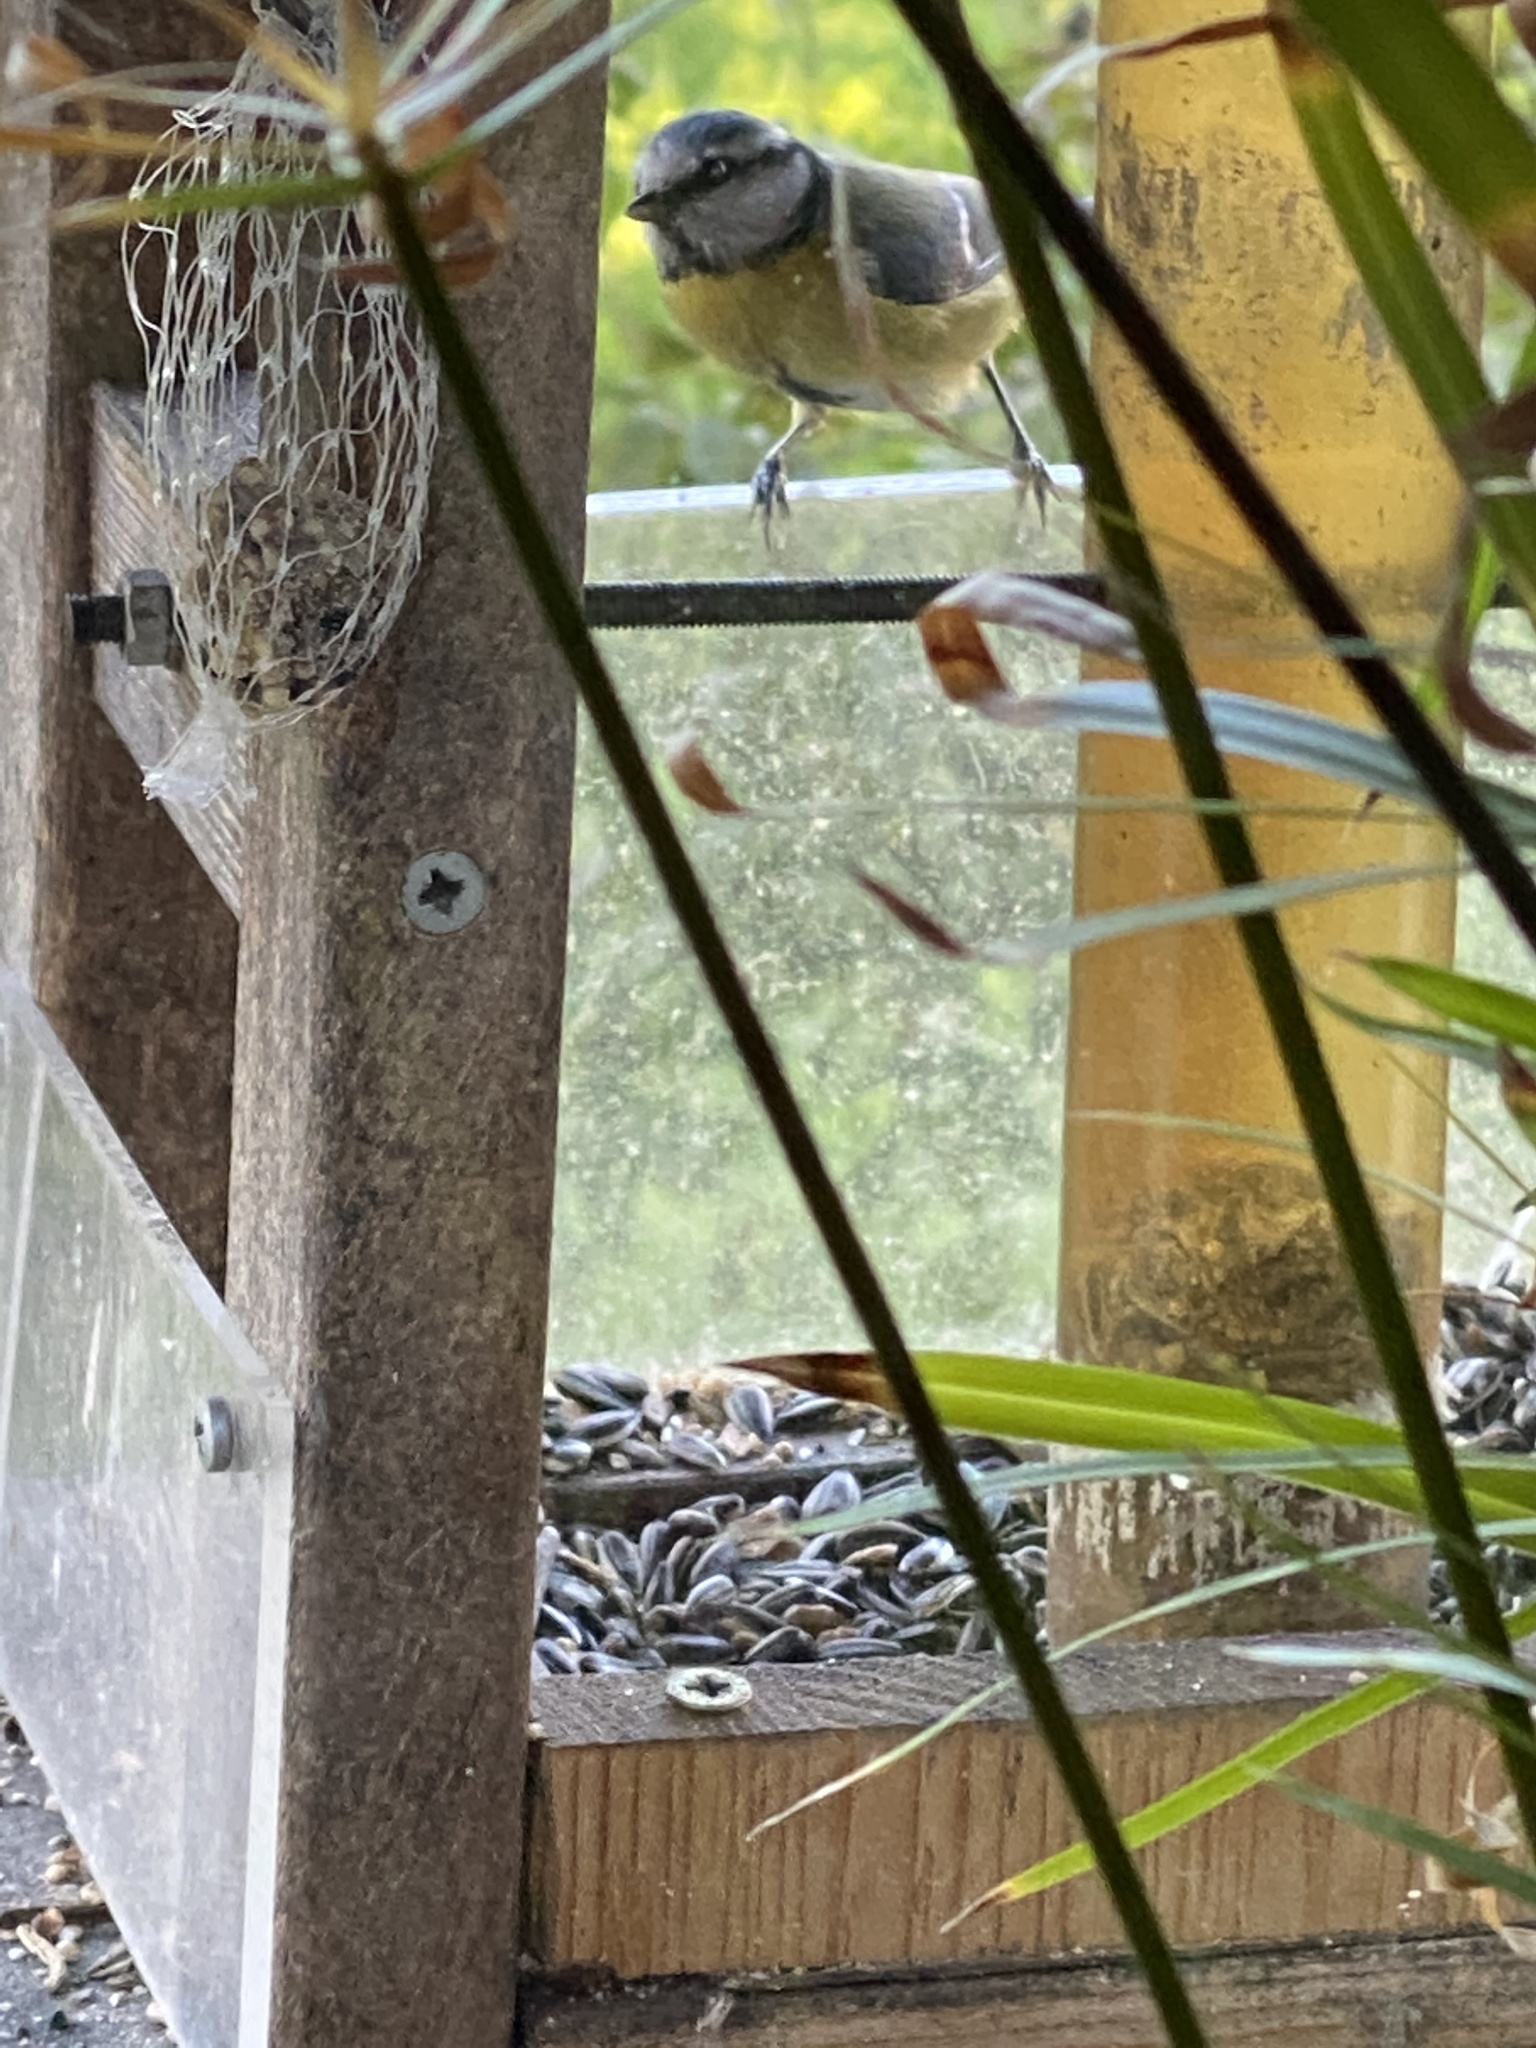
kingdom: Animalia
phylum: Chordata
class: Aves
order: Passeriformes
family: Paridae
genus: Cyanistes
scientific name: Cyanistes caeruleus
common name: Eurasian blue tit
